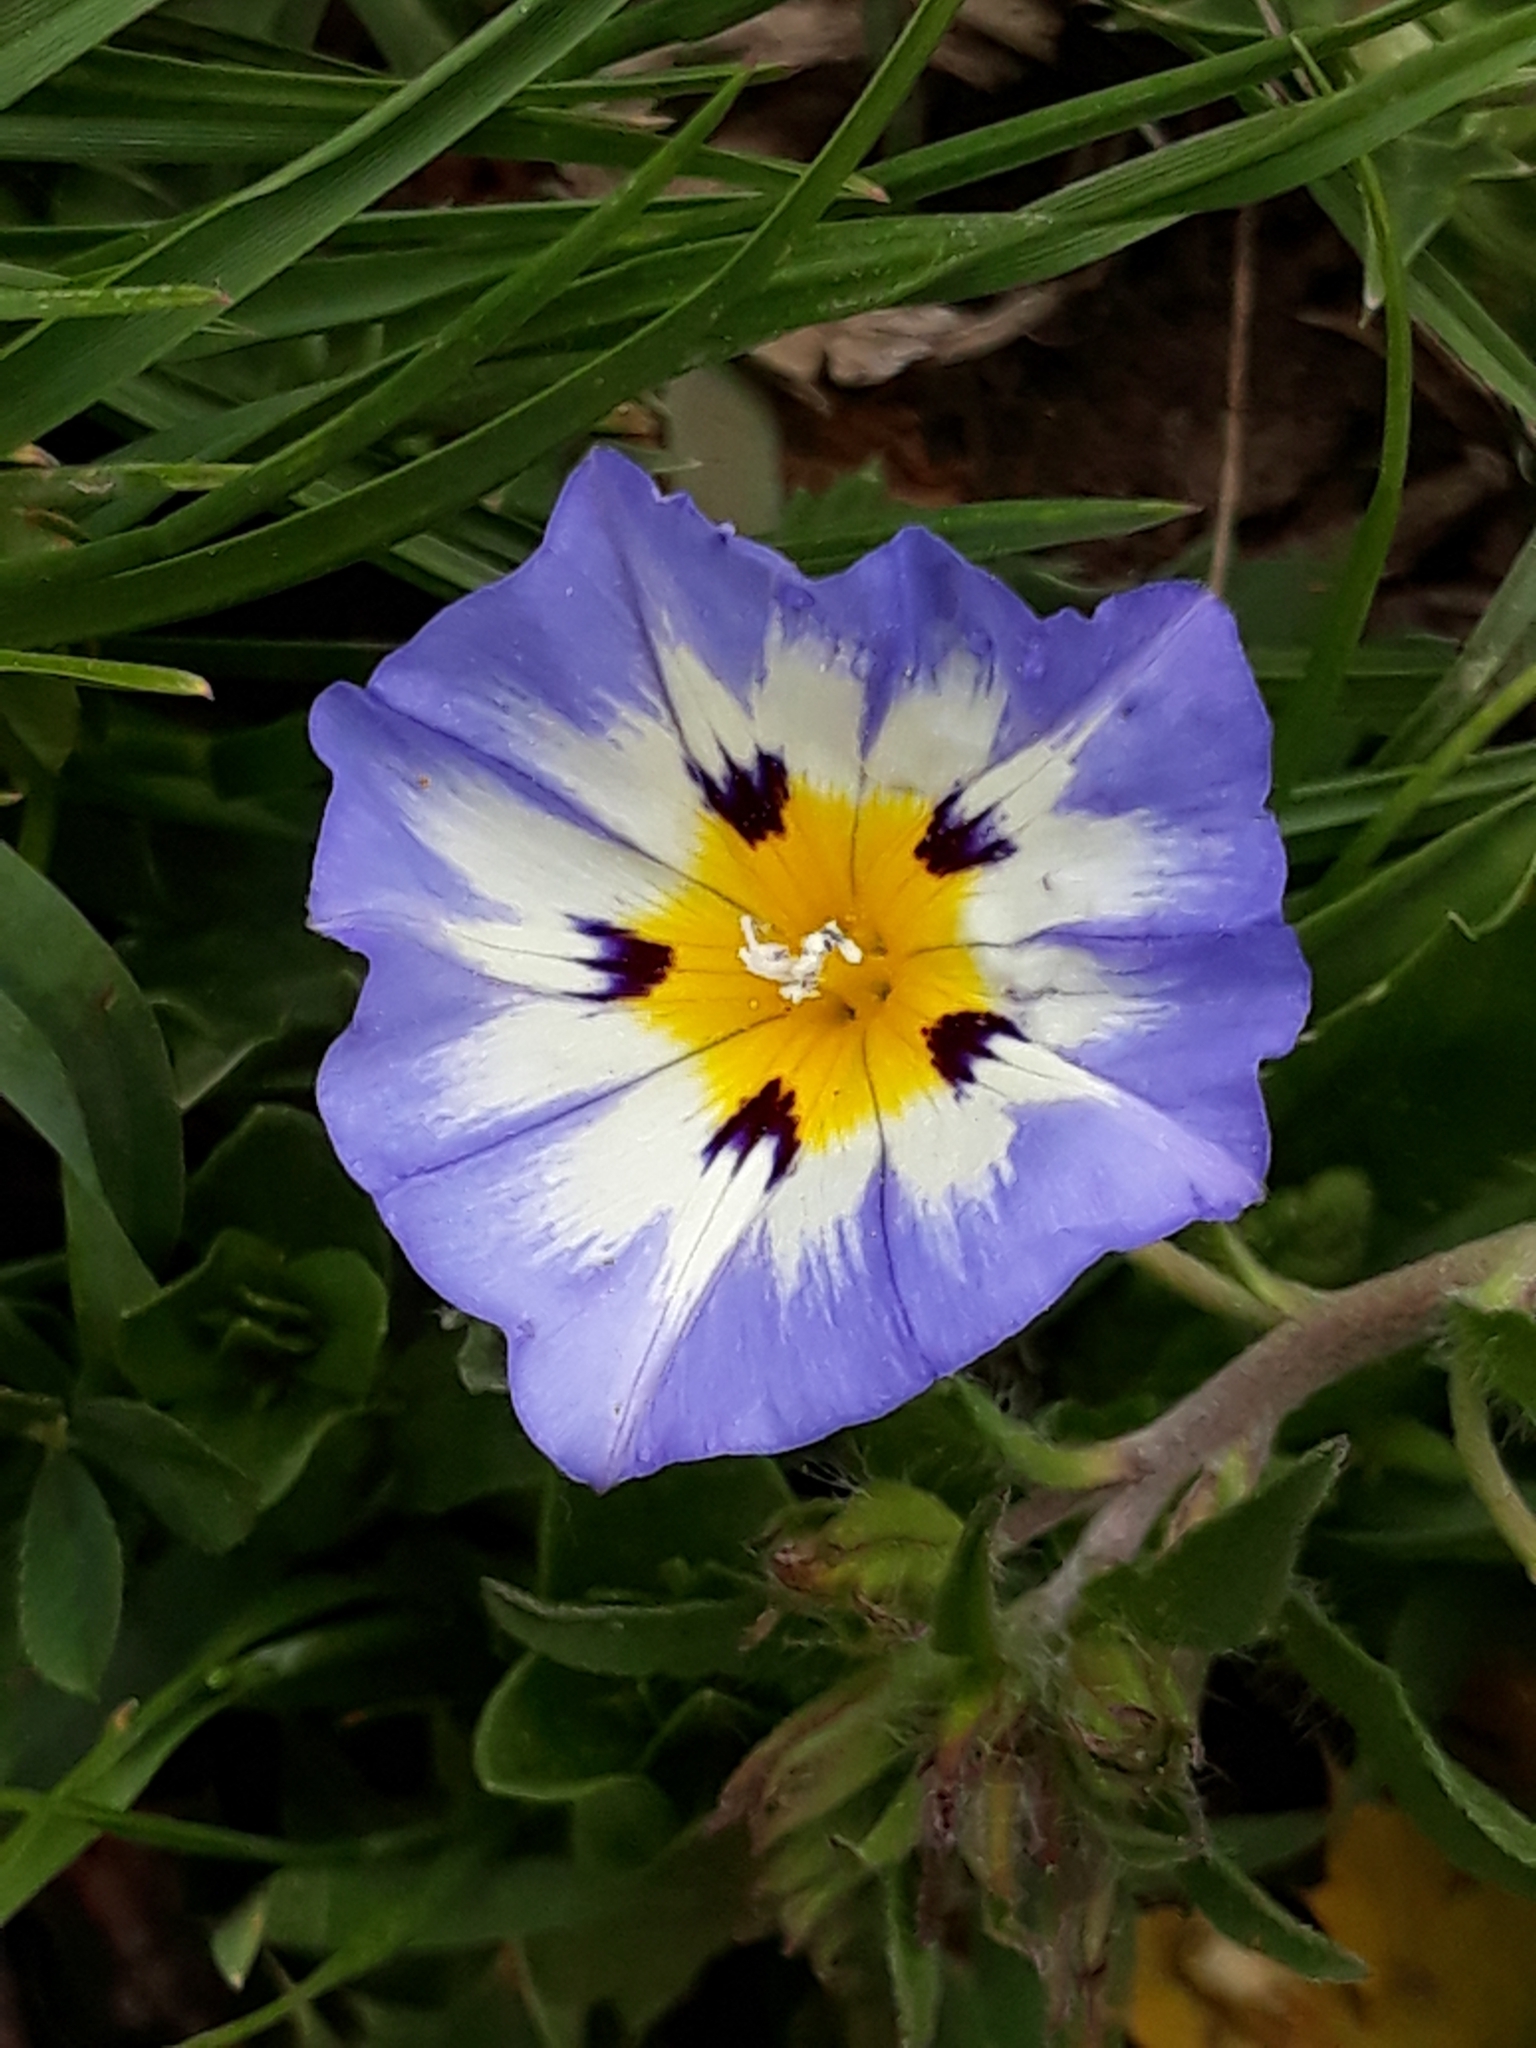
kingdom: Plantae
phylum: Tracheophyta
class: Magnoliopsida
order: Solanales
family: Convolvulaceae
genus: Convolvulus
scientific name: Convolvulus tricolor
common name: Dwarf morning-glory
